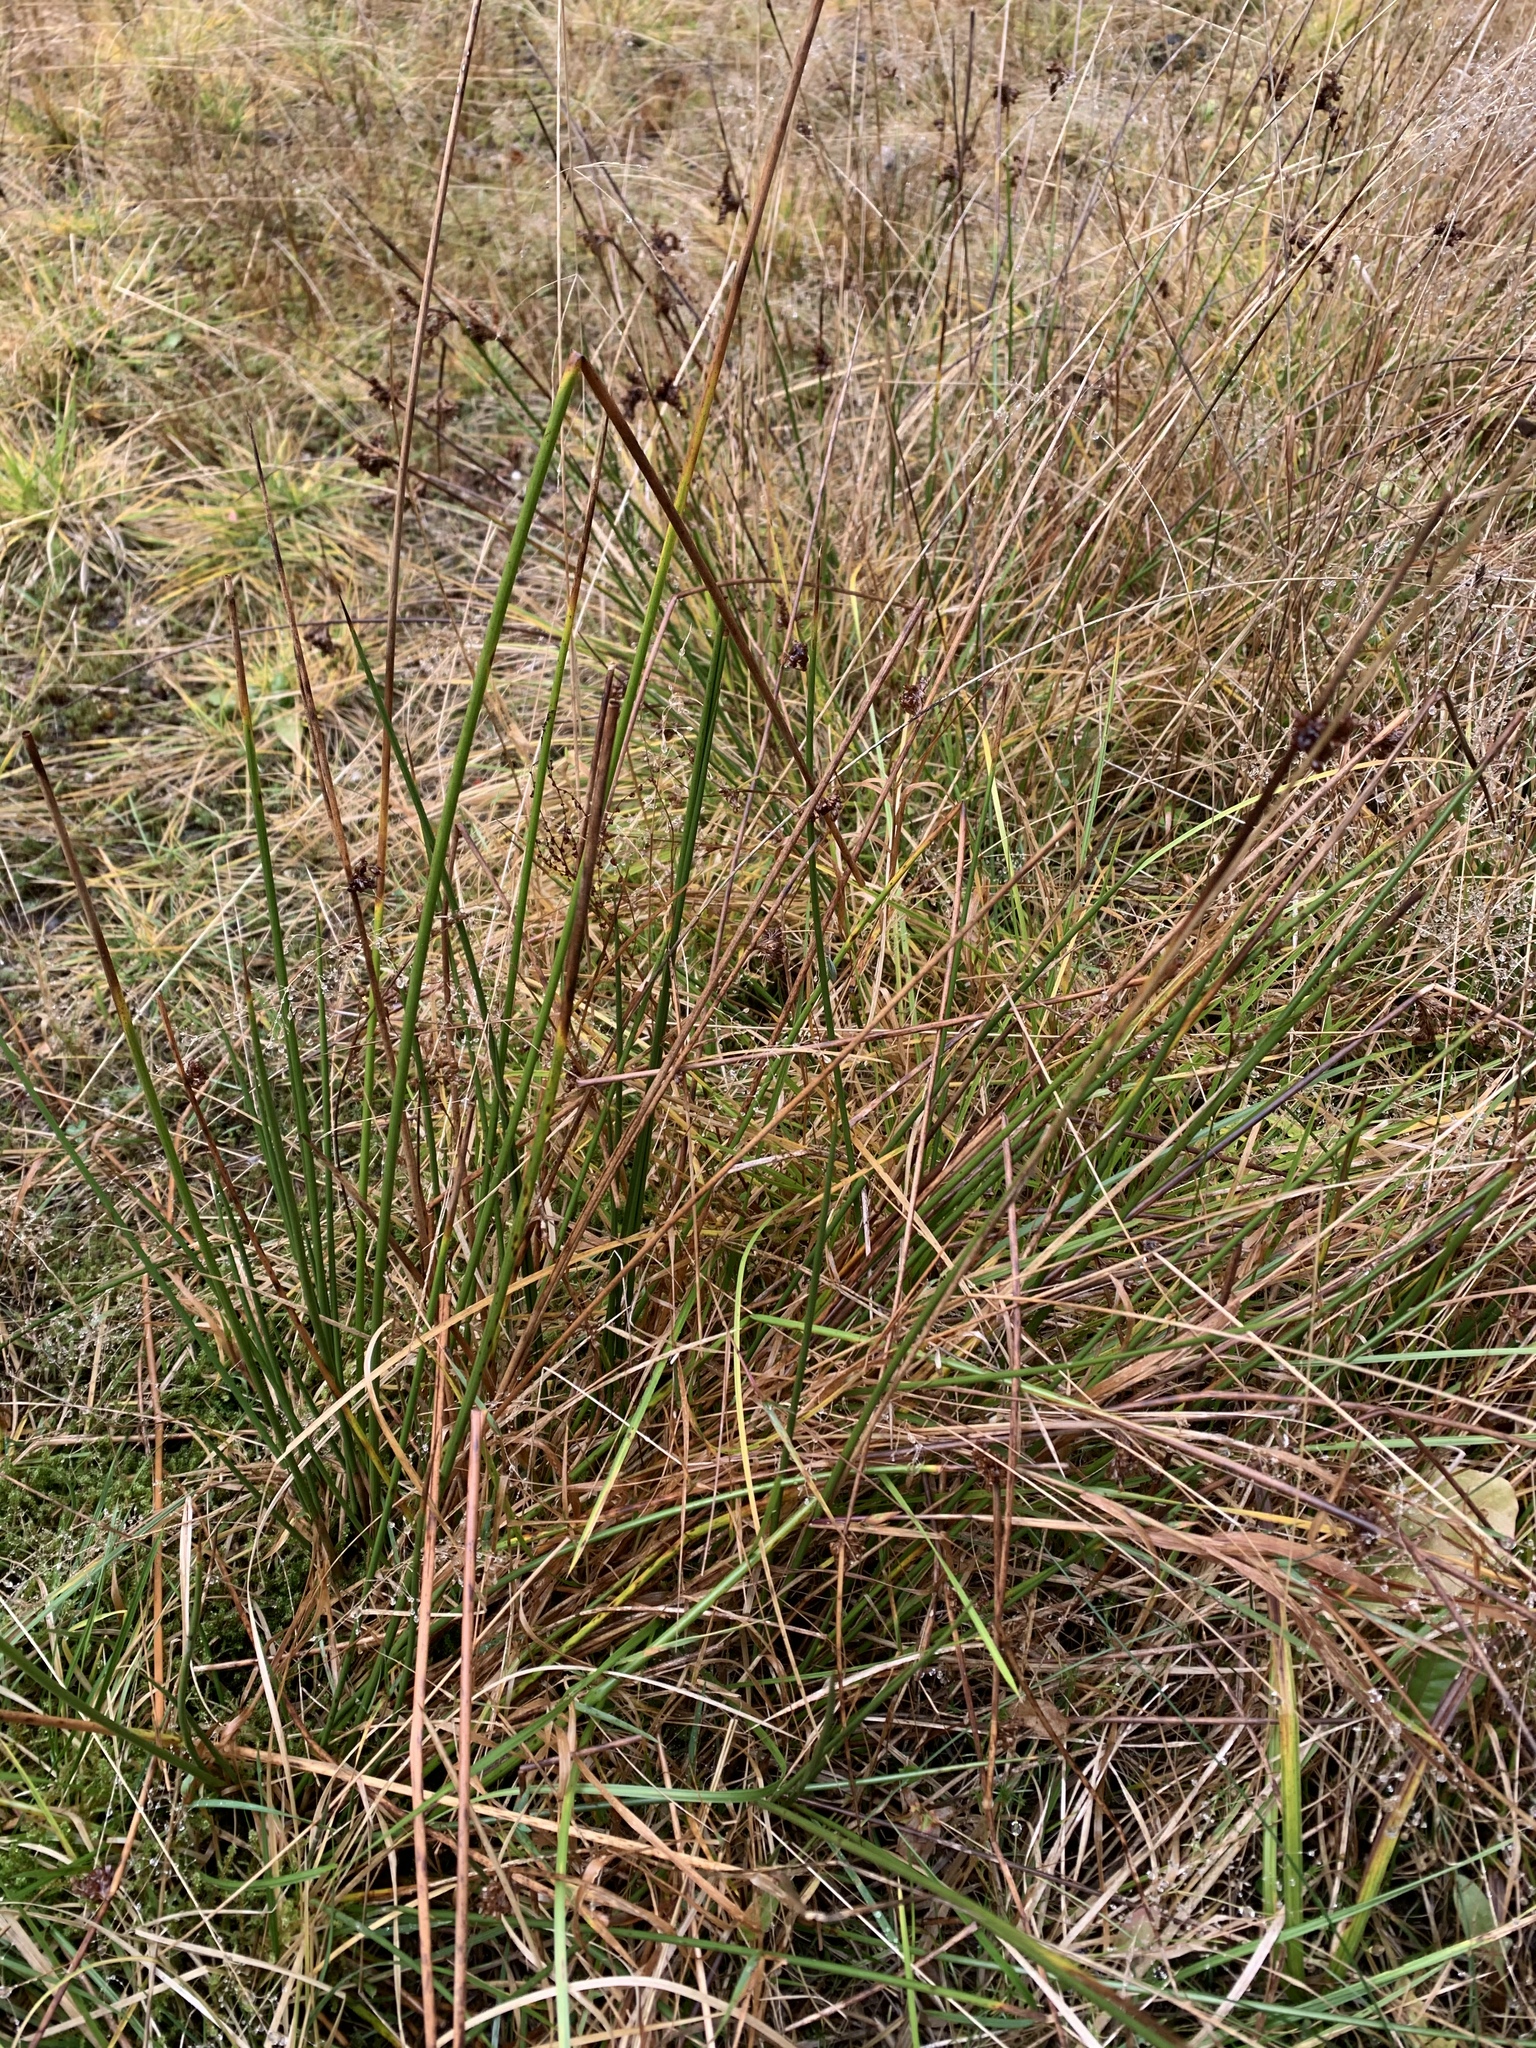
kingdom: Plantae
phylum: Tracheophyta
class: Liliopsida
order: Poales
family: Juncaceae
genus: Juncus
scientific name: Juncus effusus
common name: Soft rush
